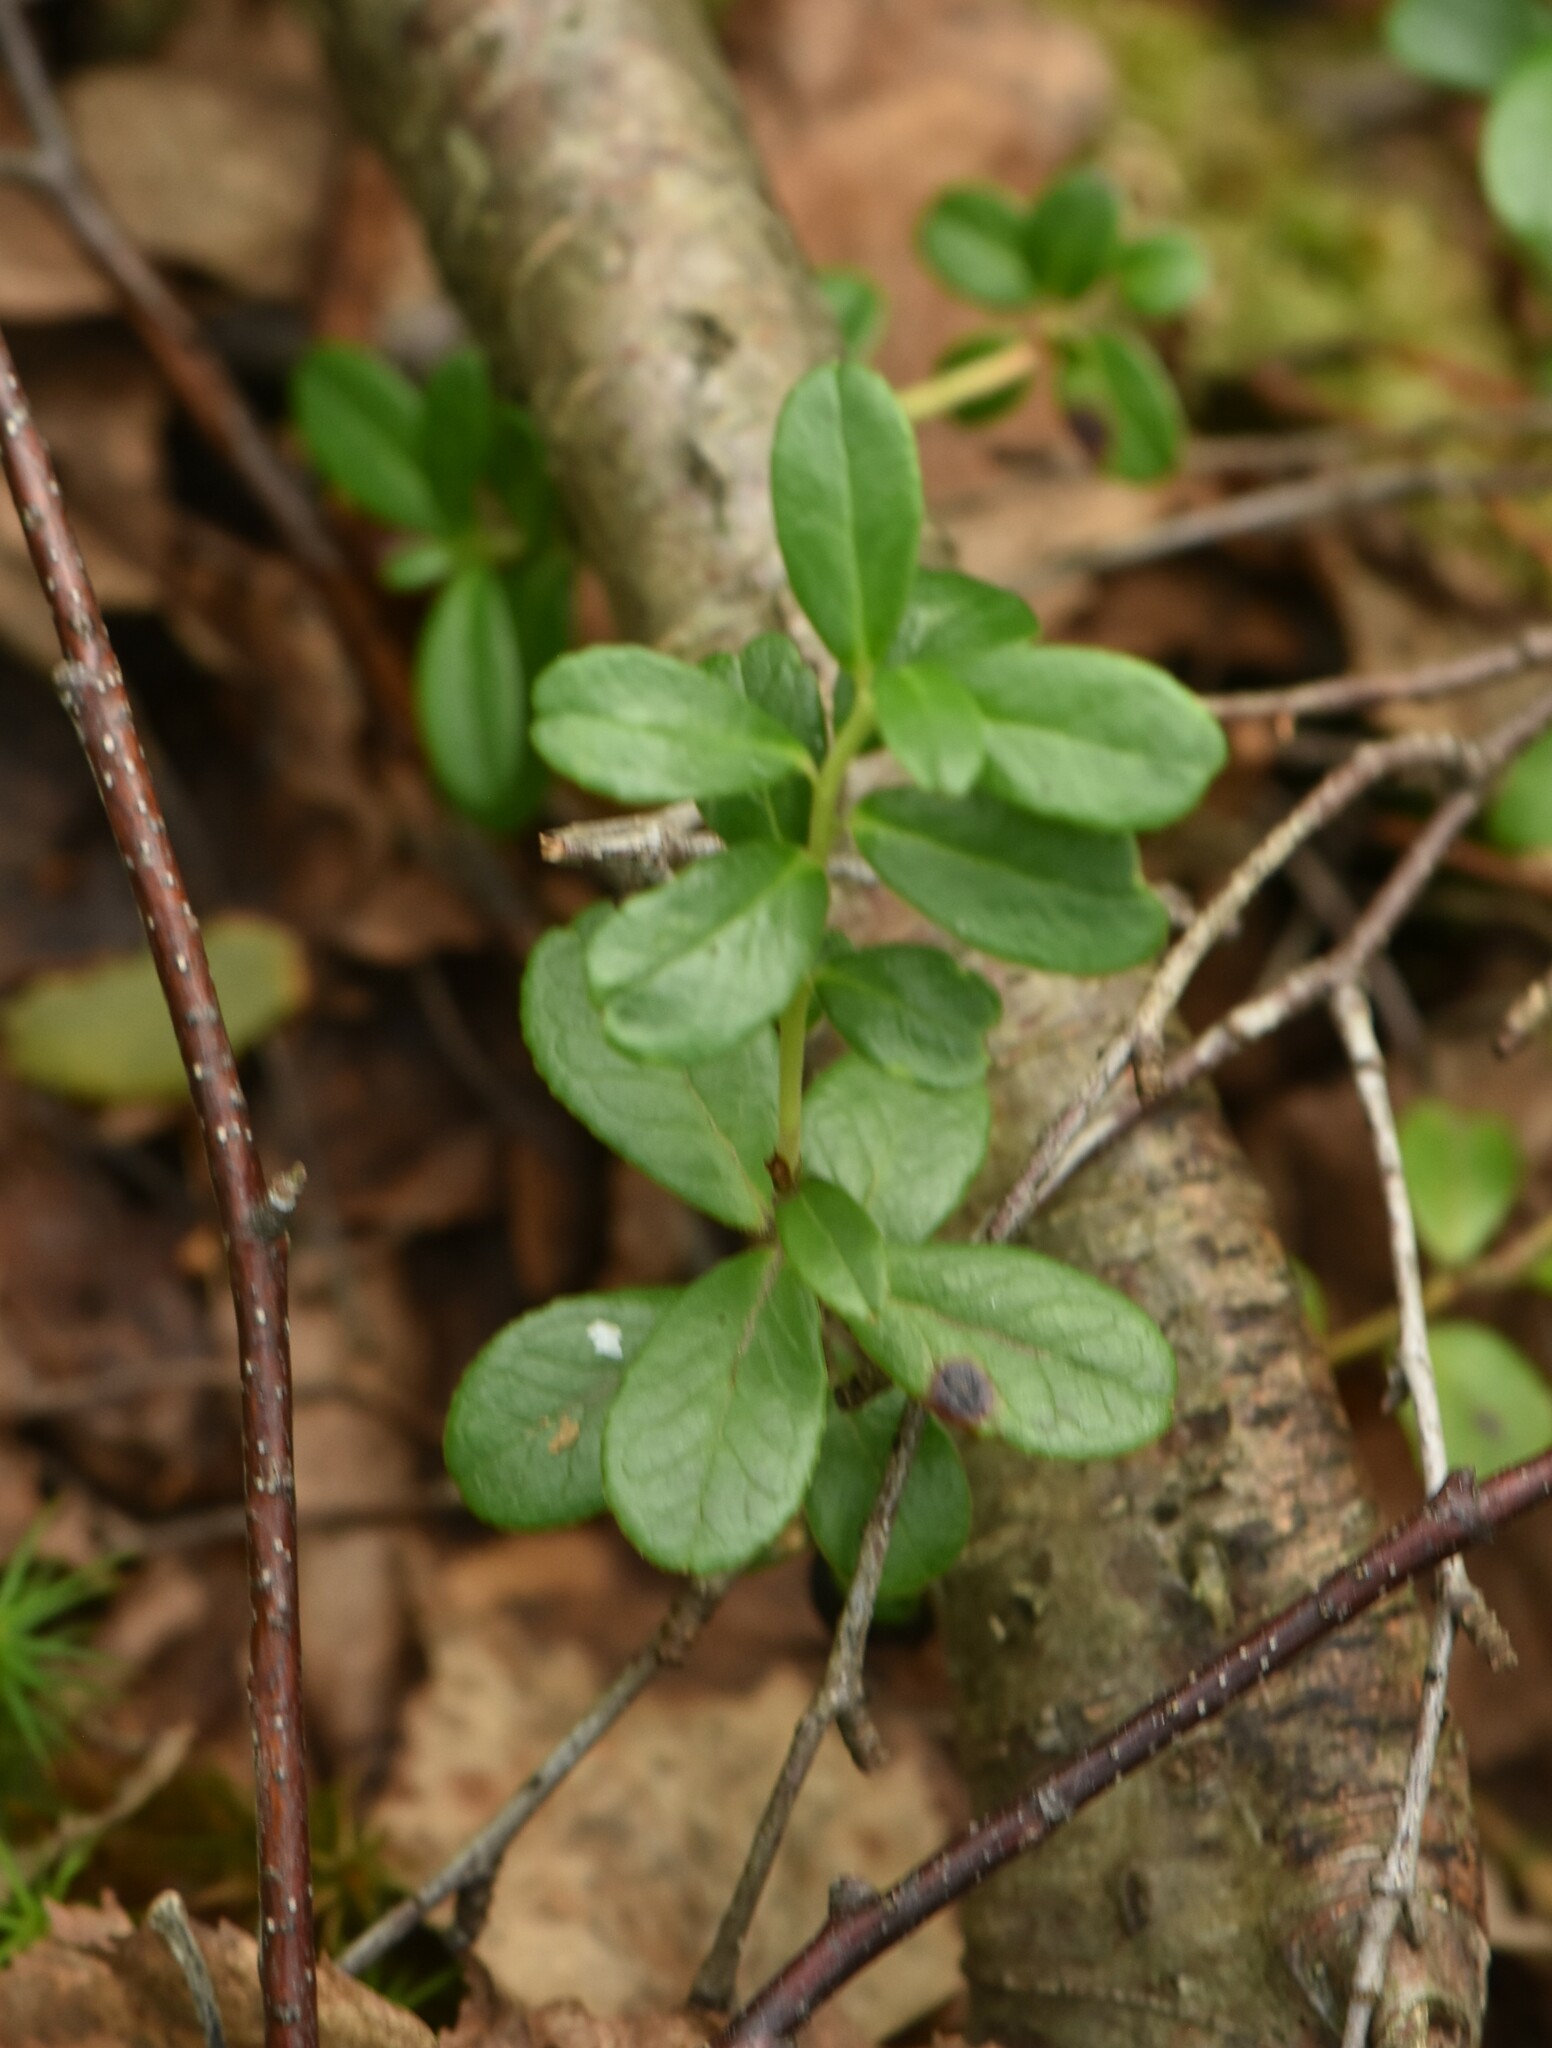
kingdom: Plantae
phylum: Tracheophyta
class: Magnoliopsida
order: Ericales
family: Ericaceae
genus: Vaccinium
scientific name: Vaccinium vitis-idaea
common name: Cowberry
